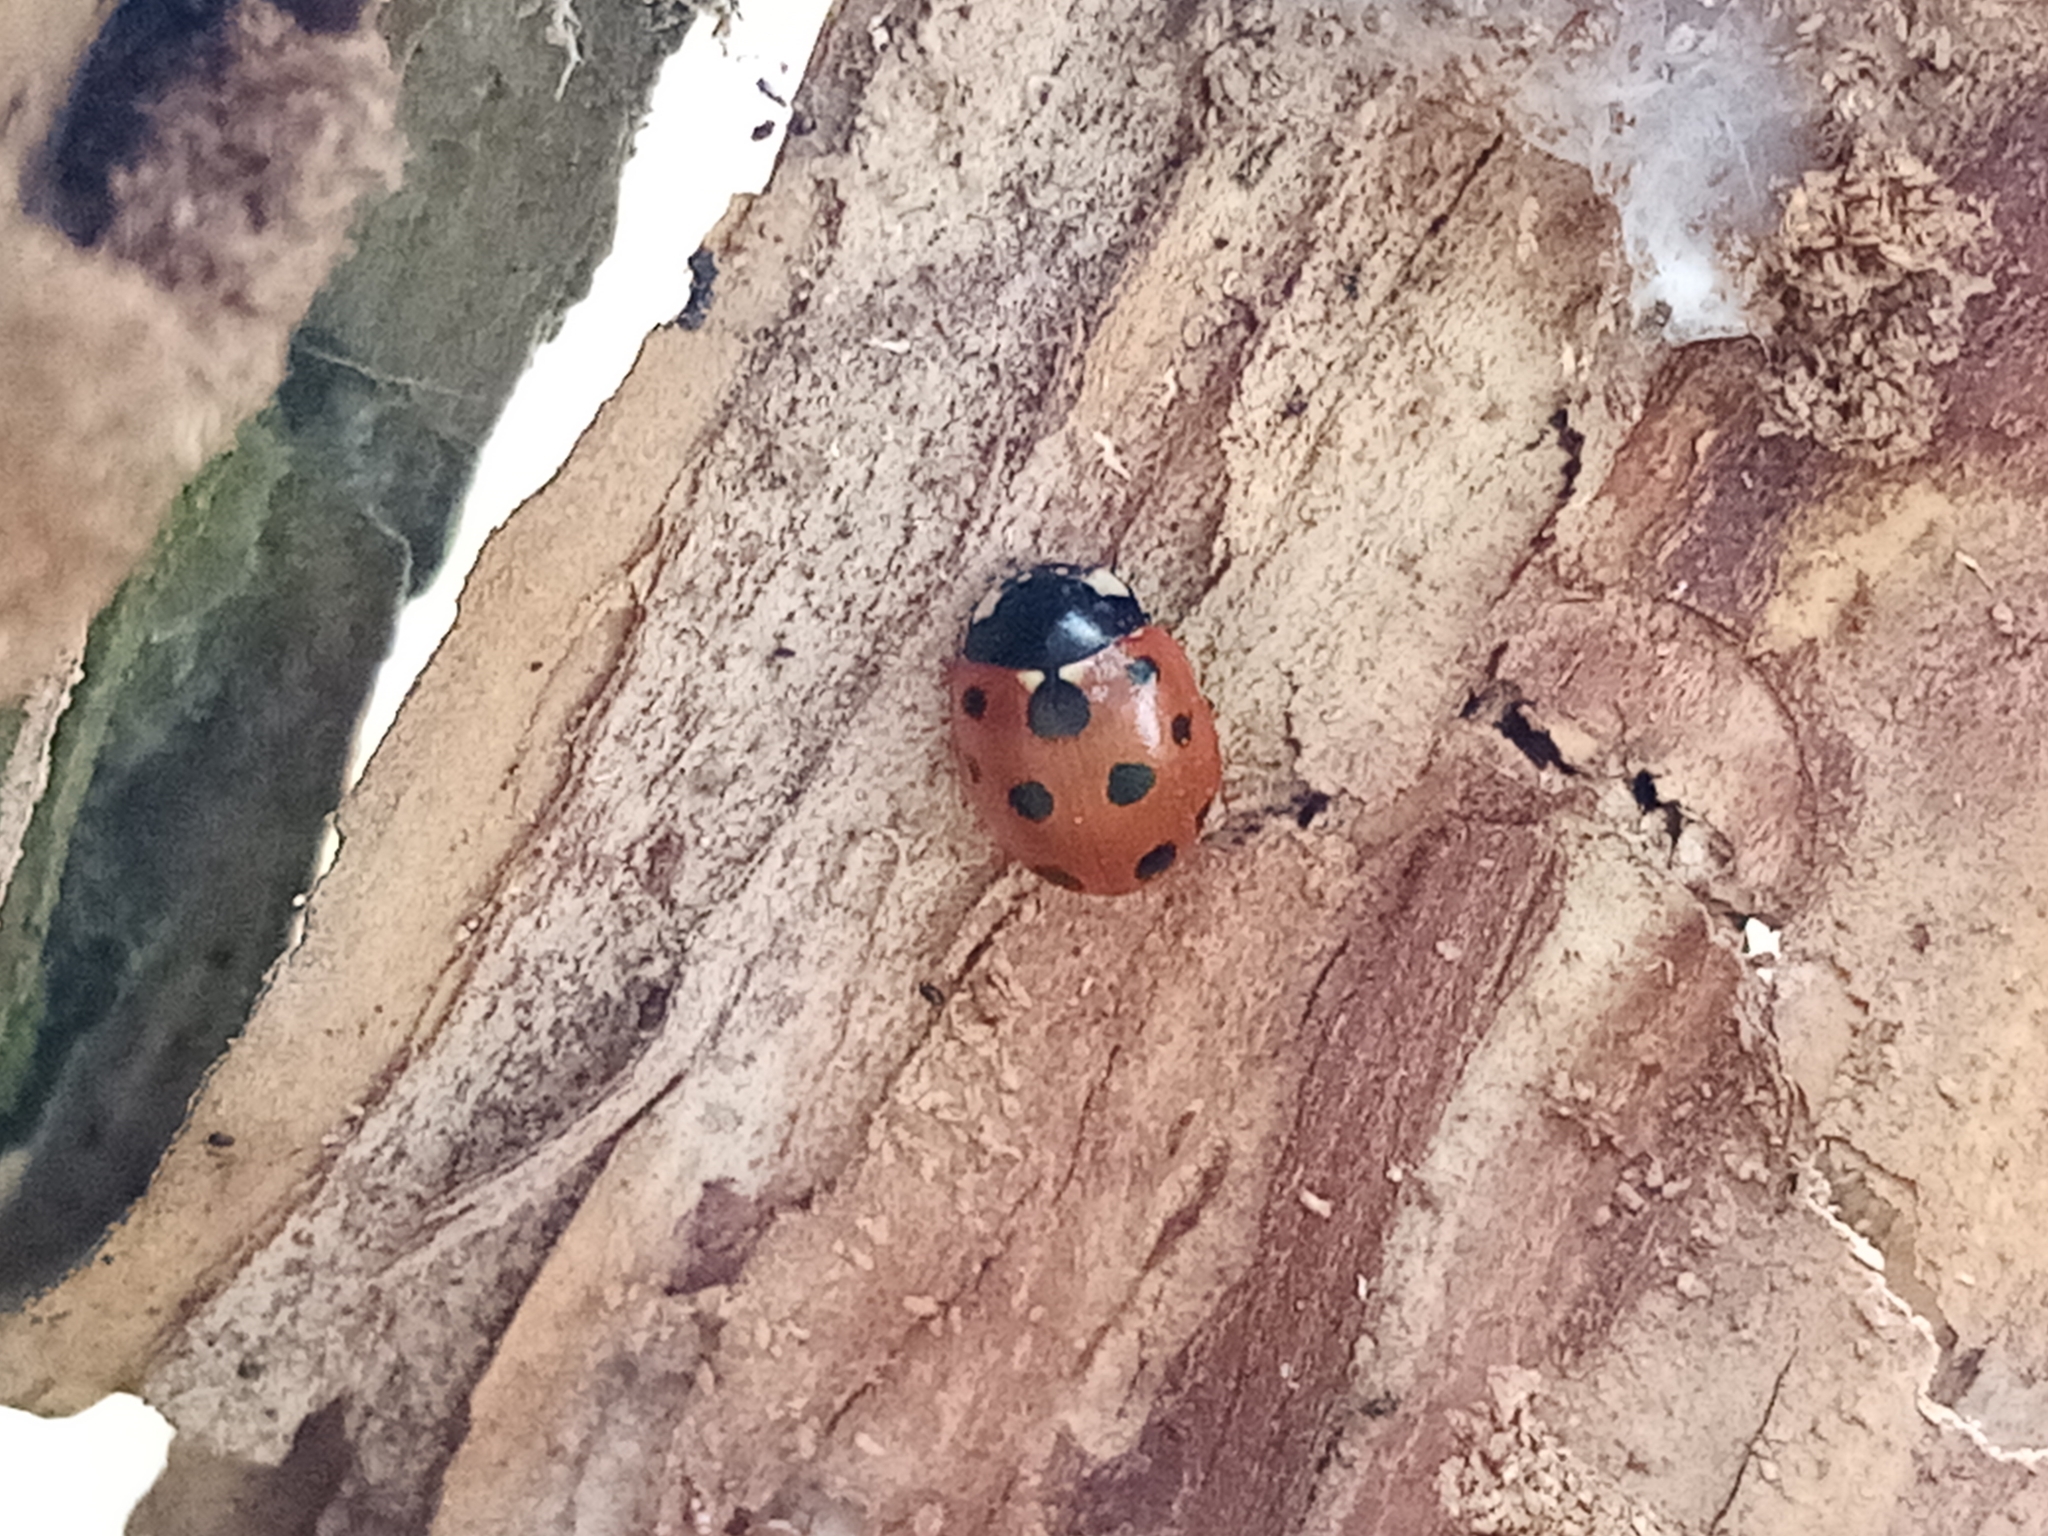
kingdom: Animalia
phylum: Arthropoda
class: Insecta
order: Coleoptera
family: Coccinellidae
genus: Coccinella
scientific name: Coccinella undecimpunctata
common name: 11-spot ladybird
